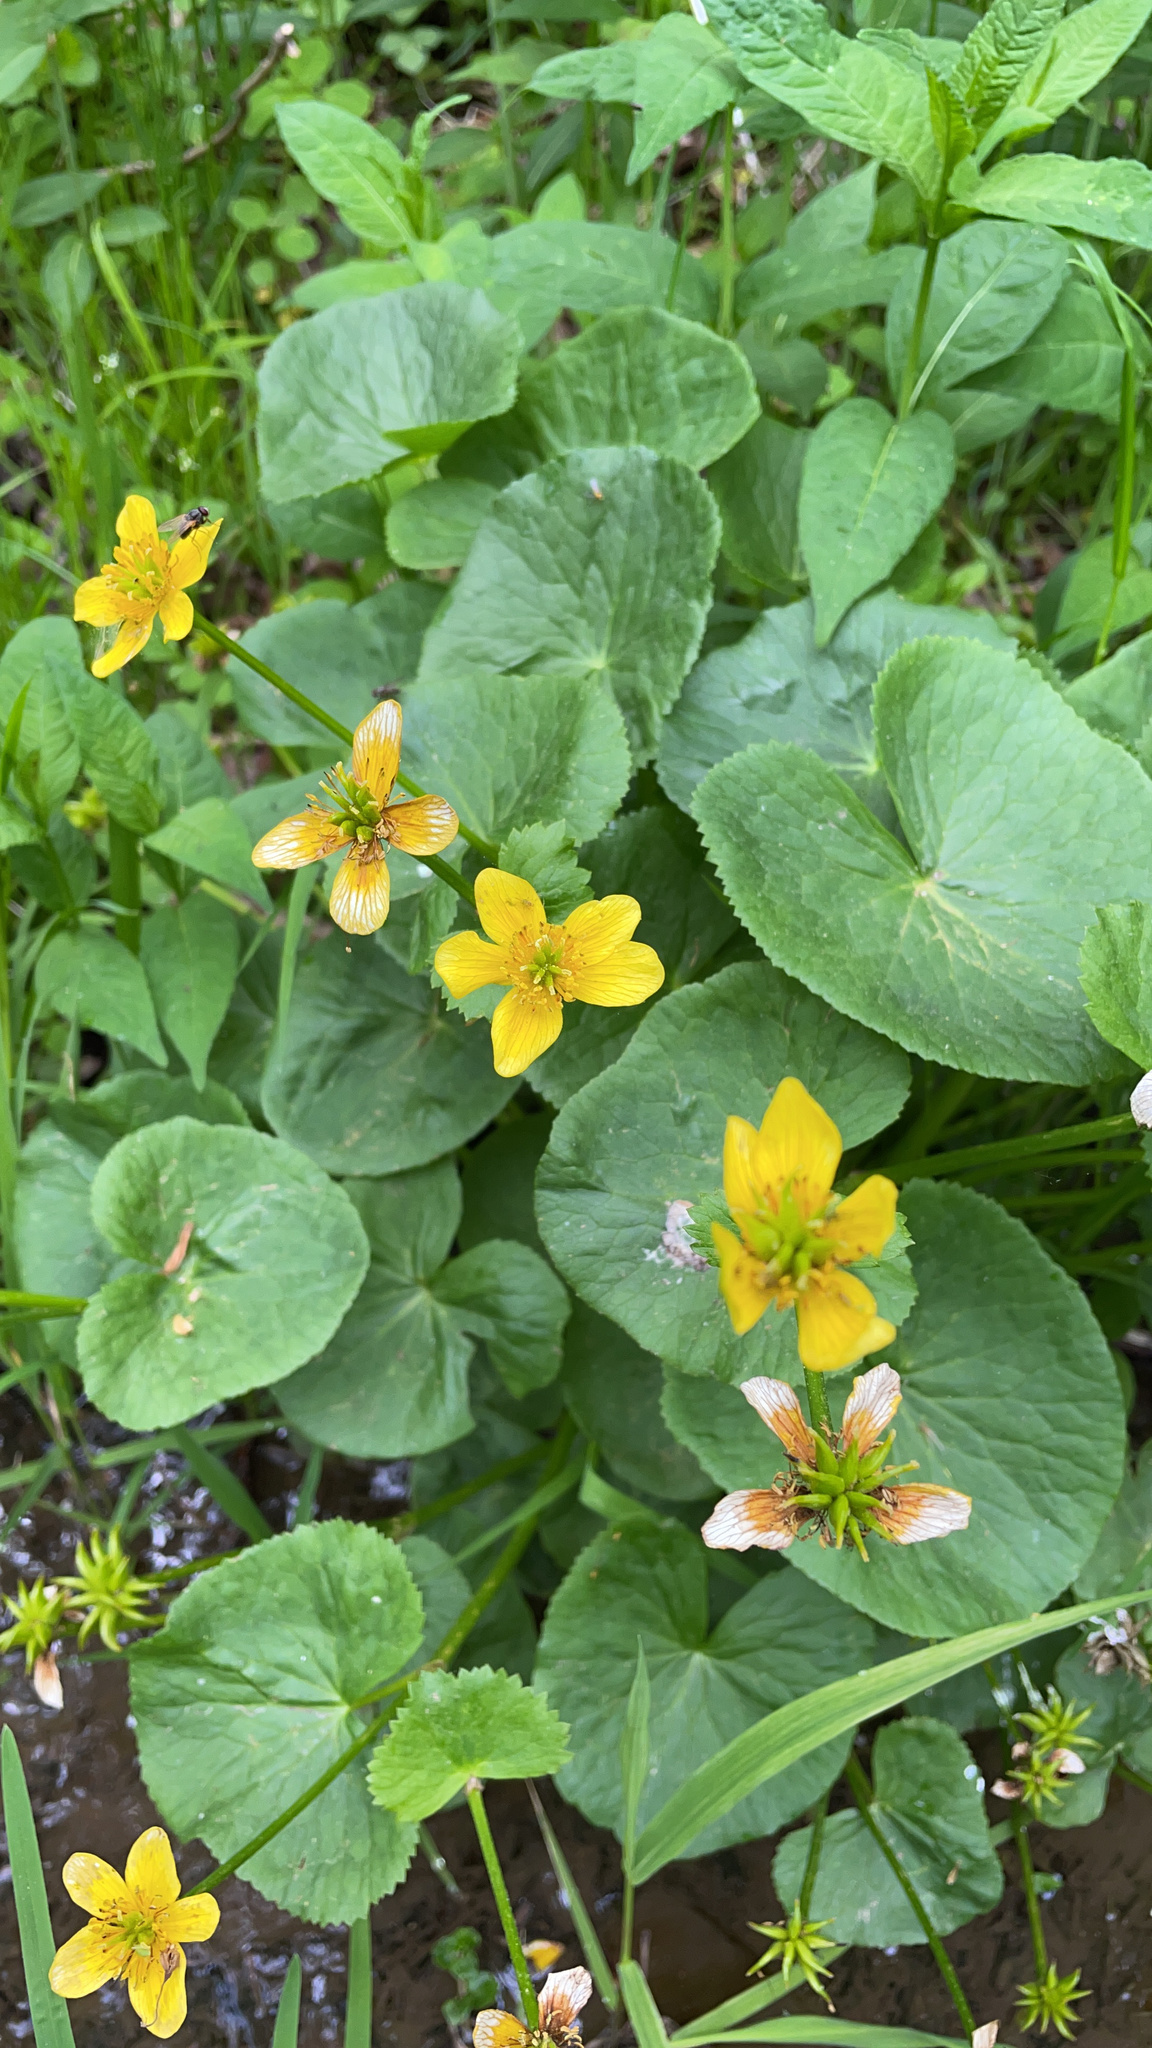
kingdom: Plantae
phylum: Tracheophyta
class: Magnoliopsida
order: Ranunculales
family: Ranunculaceae
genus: Caltha
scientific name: Caltha palustris
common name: Marsh marigold
